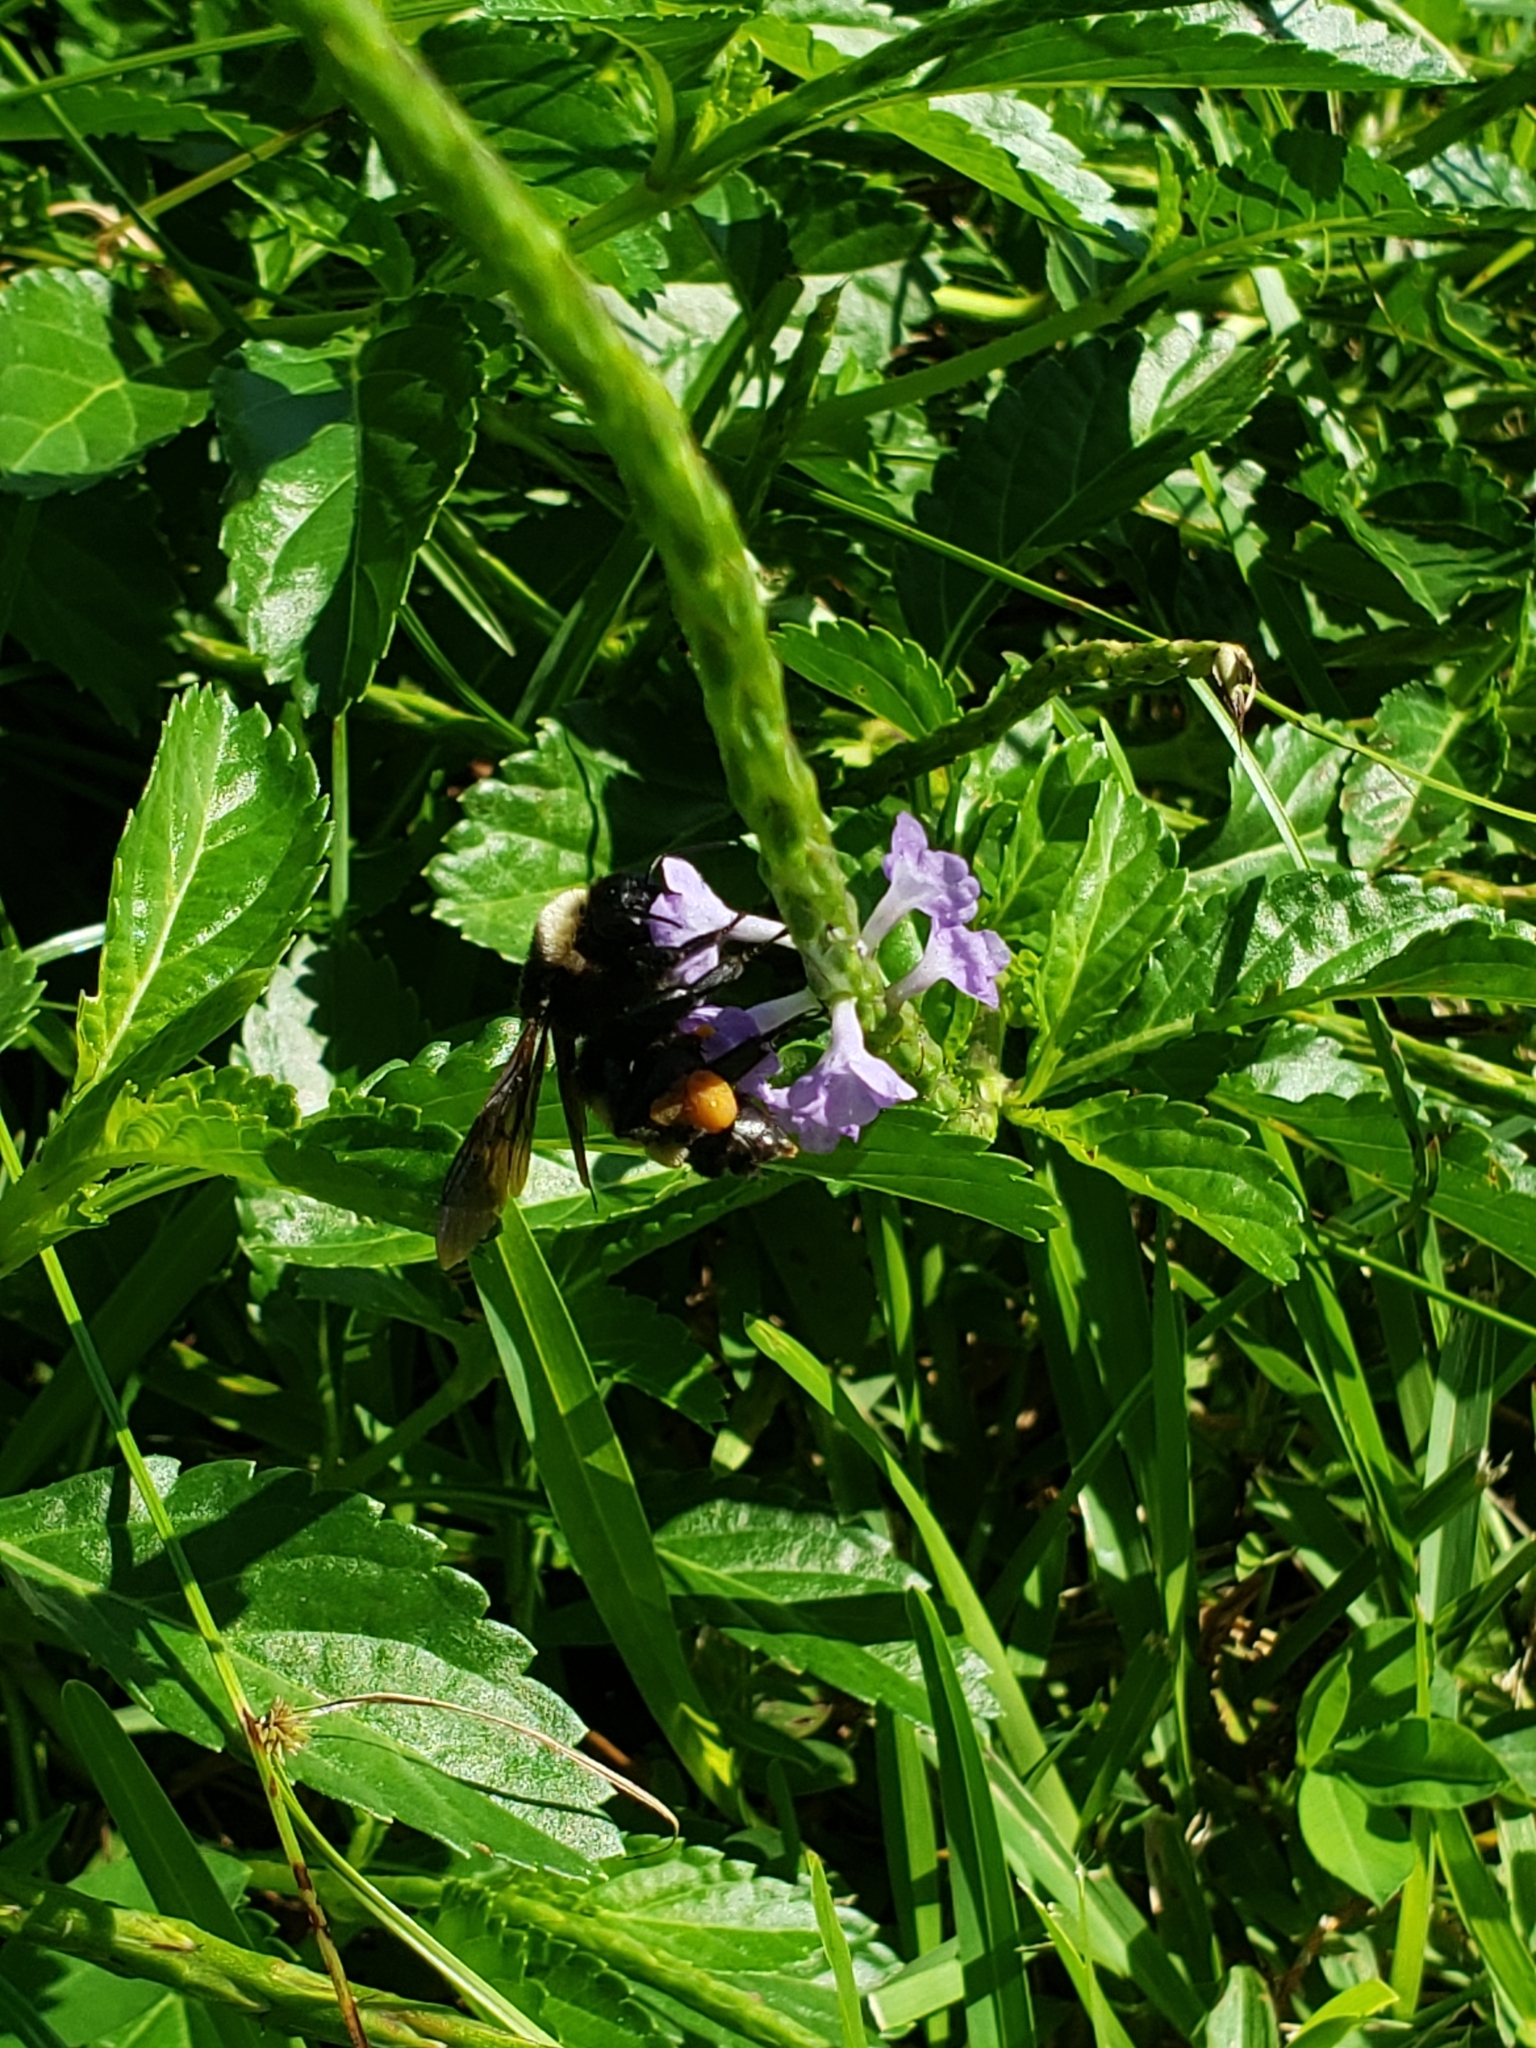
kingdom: Animalia
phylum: Arthropoda
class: Insecta
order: Hymenoptera
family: Apidae
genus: Bombus
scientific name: Bombus pensylvanicus
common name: Bumble bee
